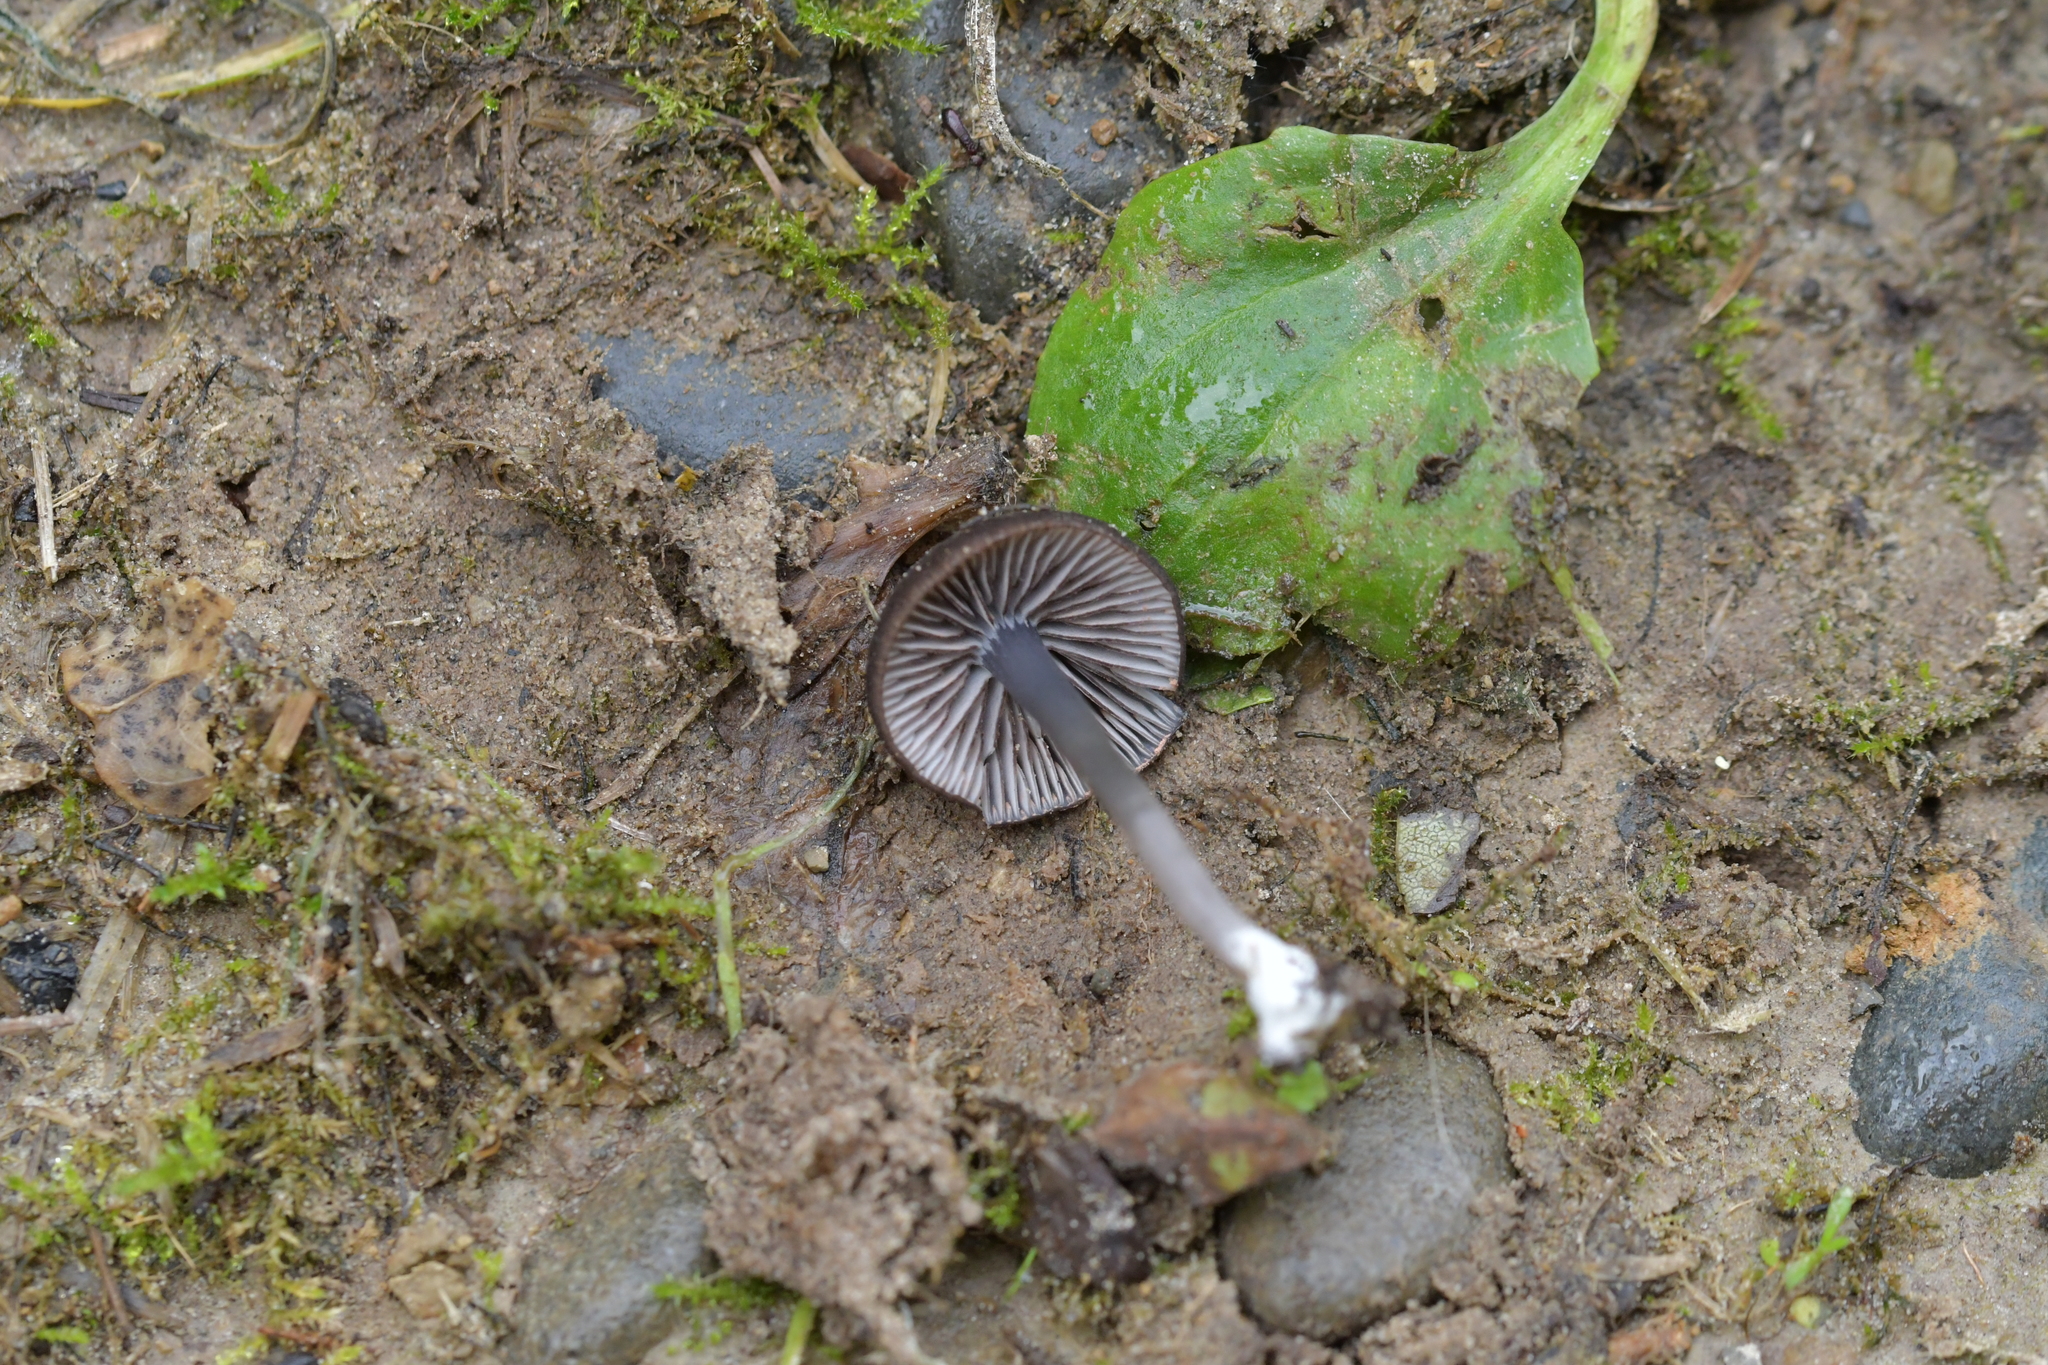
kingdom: Fungi
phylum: Basidiomycota
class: Agaricomycetes
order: Agaricales
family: Entolomataceae
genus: Entoloma
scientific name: Entoloma melanocephalum
